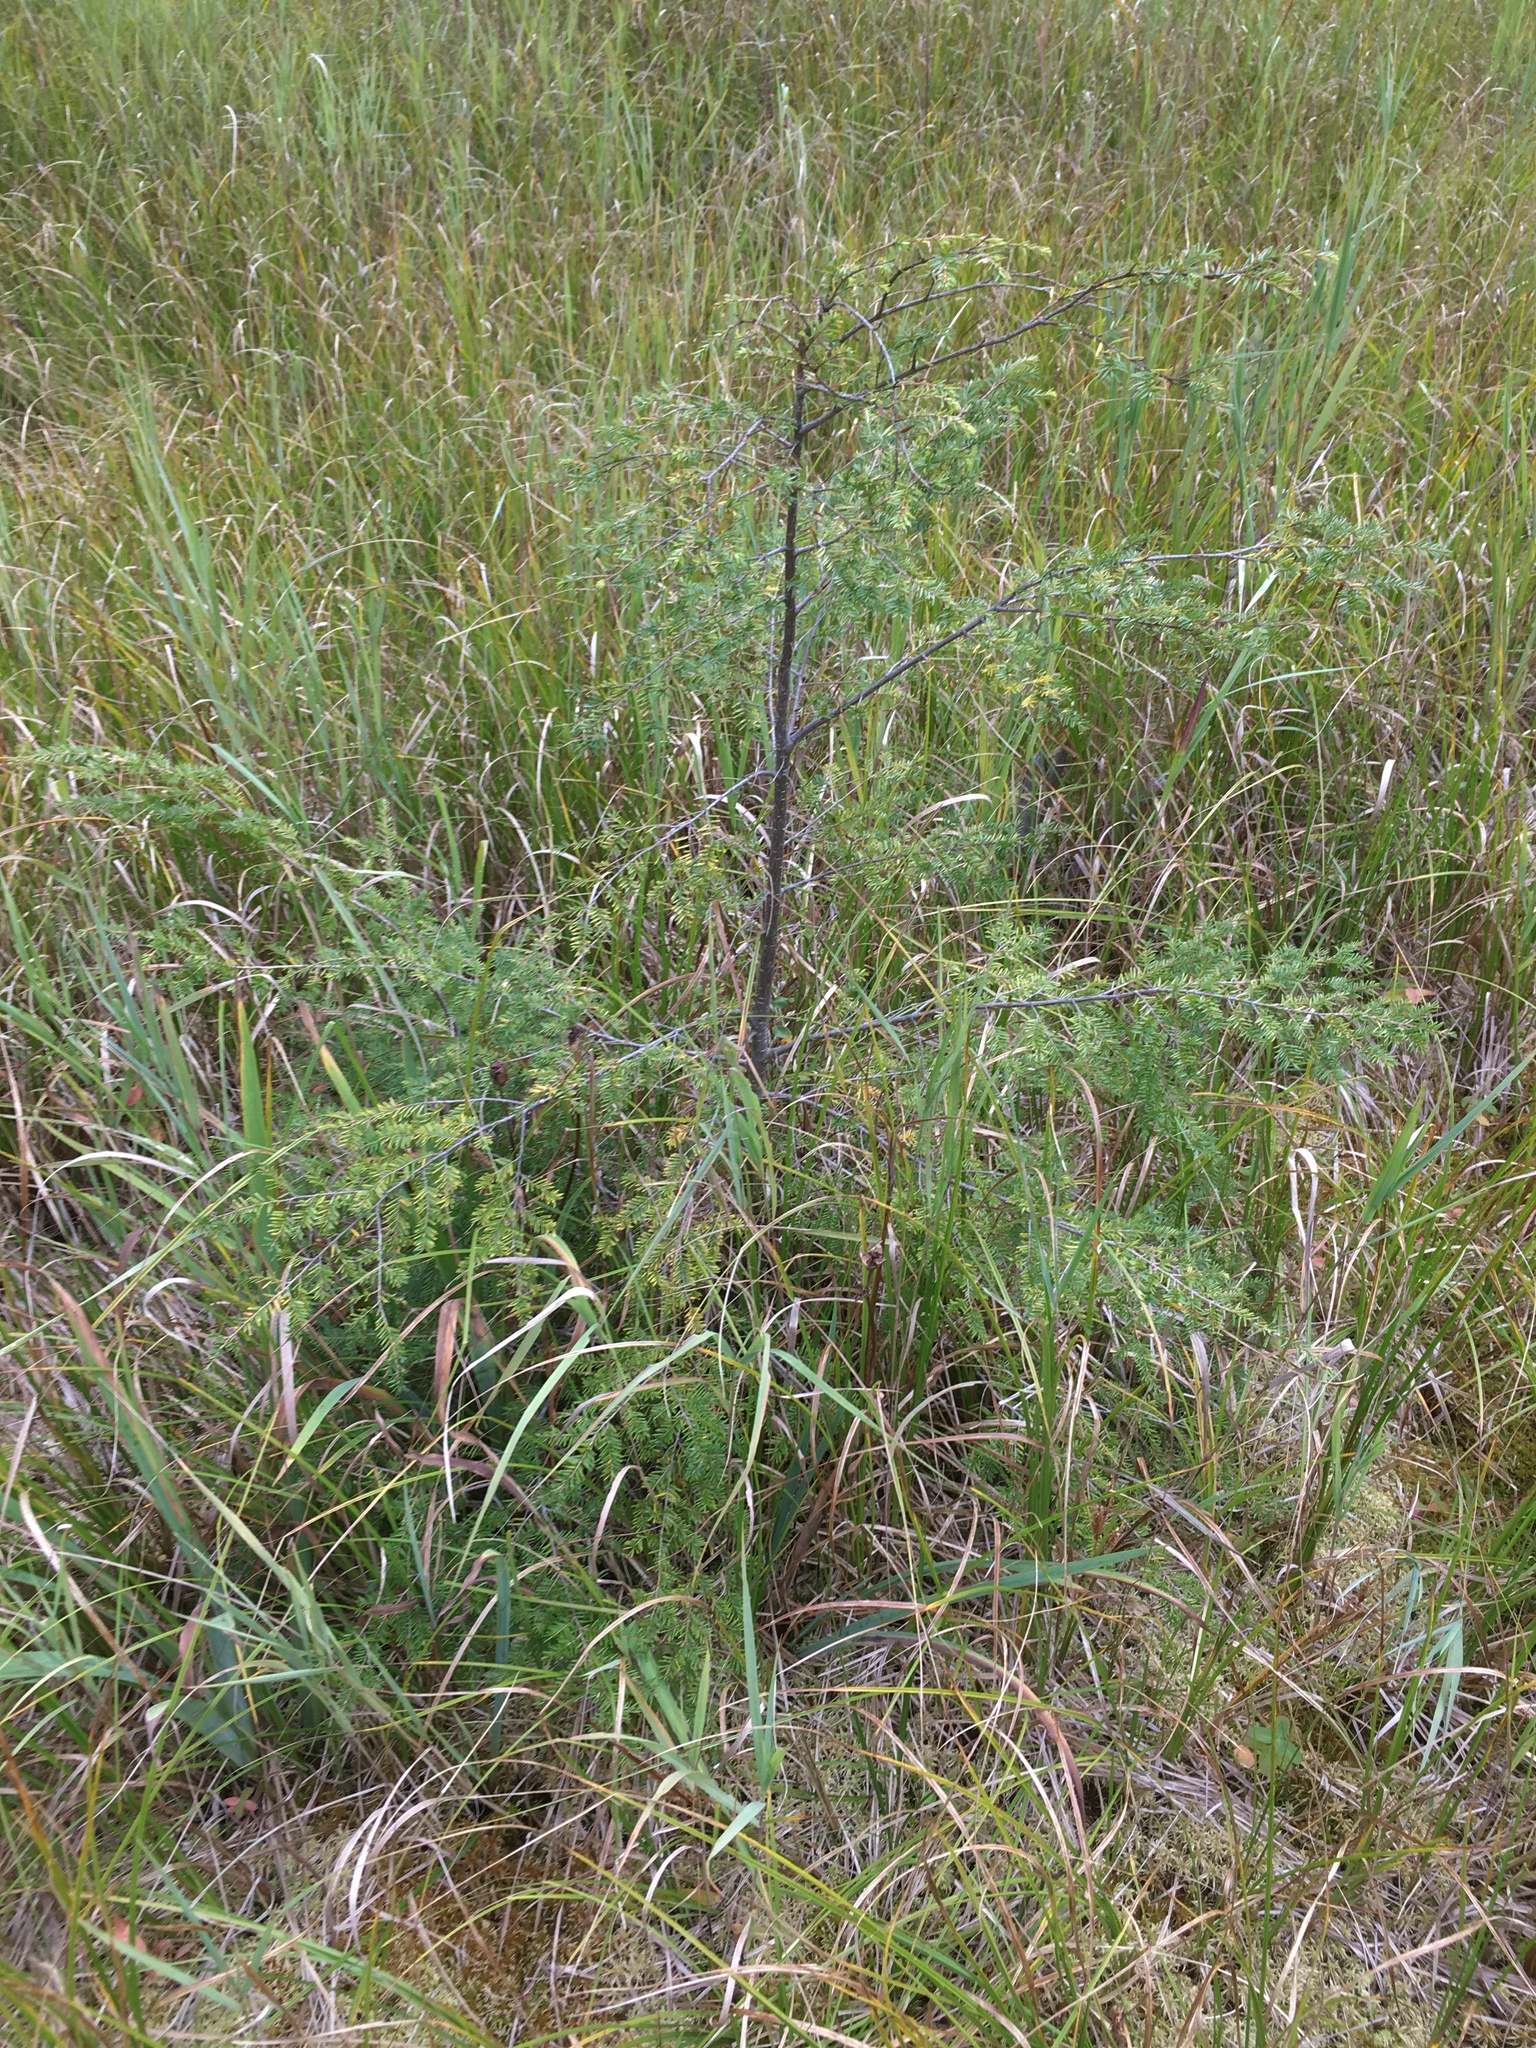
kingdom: Plantae
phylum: Tracheophyta
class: Pinopsida
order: Pinales
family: Pinaceae
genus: Tsuga
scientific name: Tsuga canadensis
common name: Eastern hemlock
